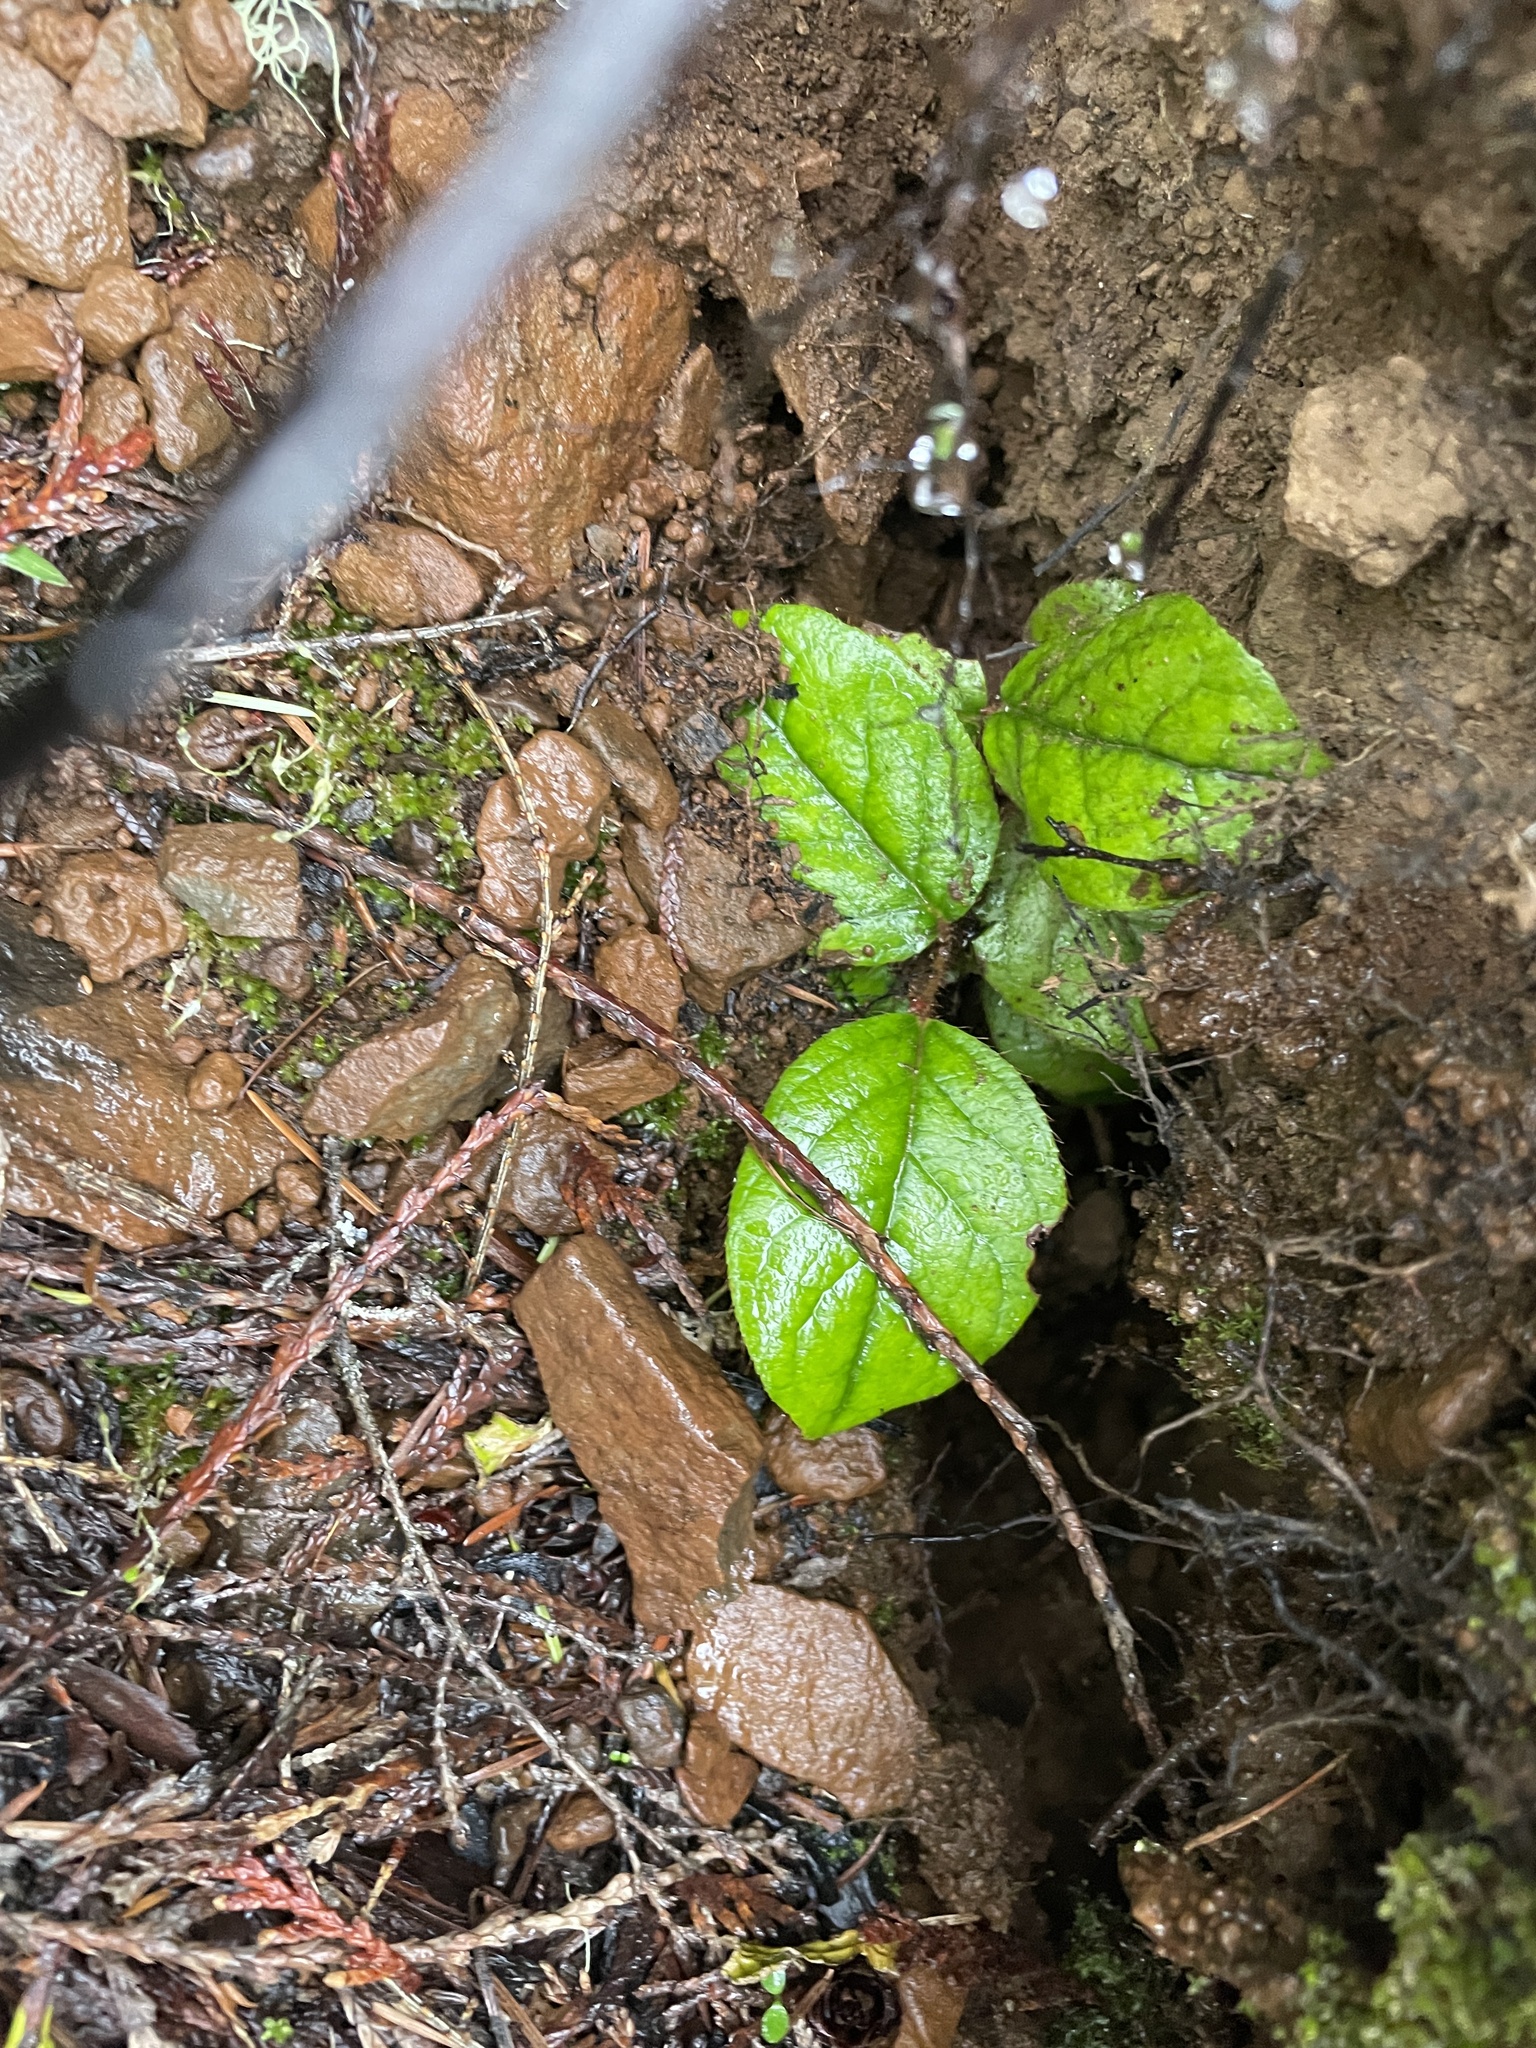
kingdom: Plantae
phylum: Tracheophyta
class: Magnoliopsida
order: Ericales
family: Ericaceae
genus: Gaultheria
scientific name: Gaultheria shallon
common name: Shallon
